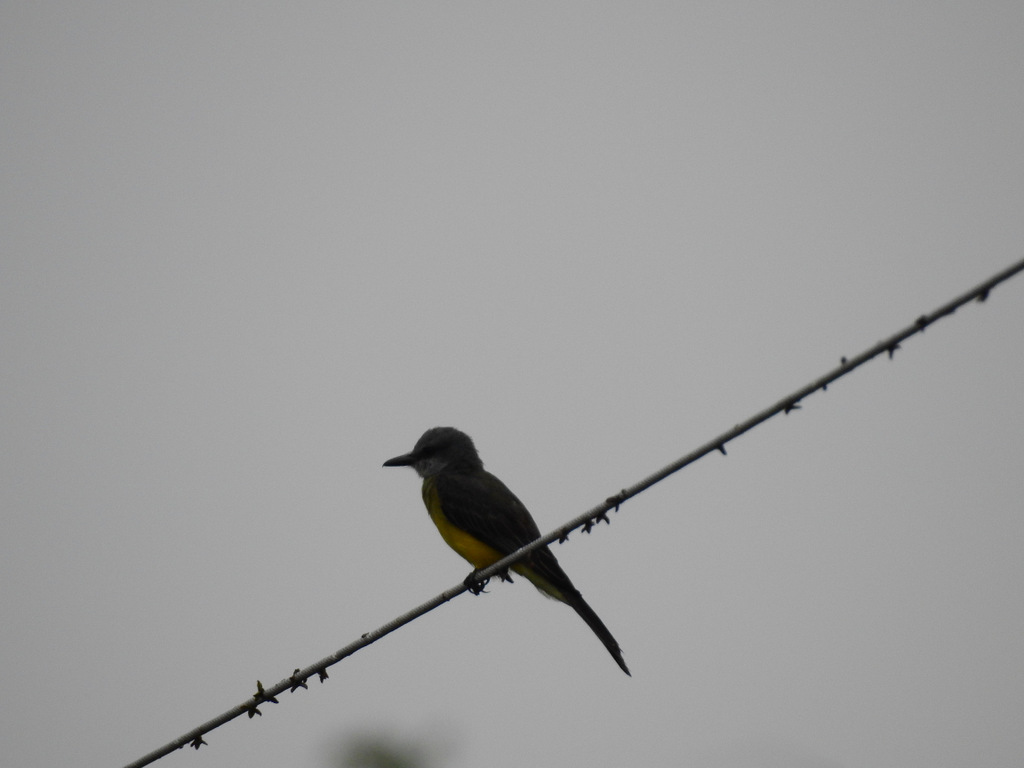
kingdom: Animalia
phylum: Chordata
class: Aves
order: Passeriformes
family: Tyrannidae
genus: Tyrannus
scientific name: Tyrannus melancholicus
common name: Tropical kingbird
